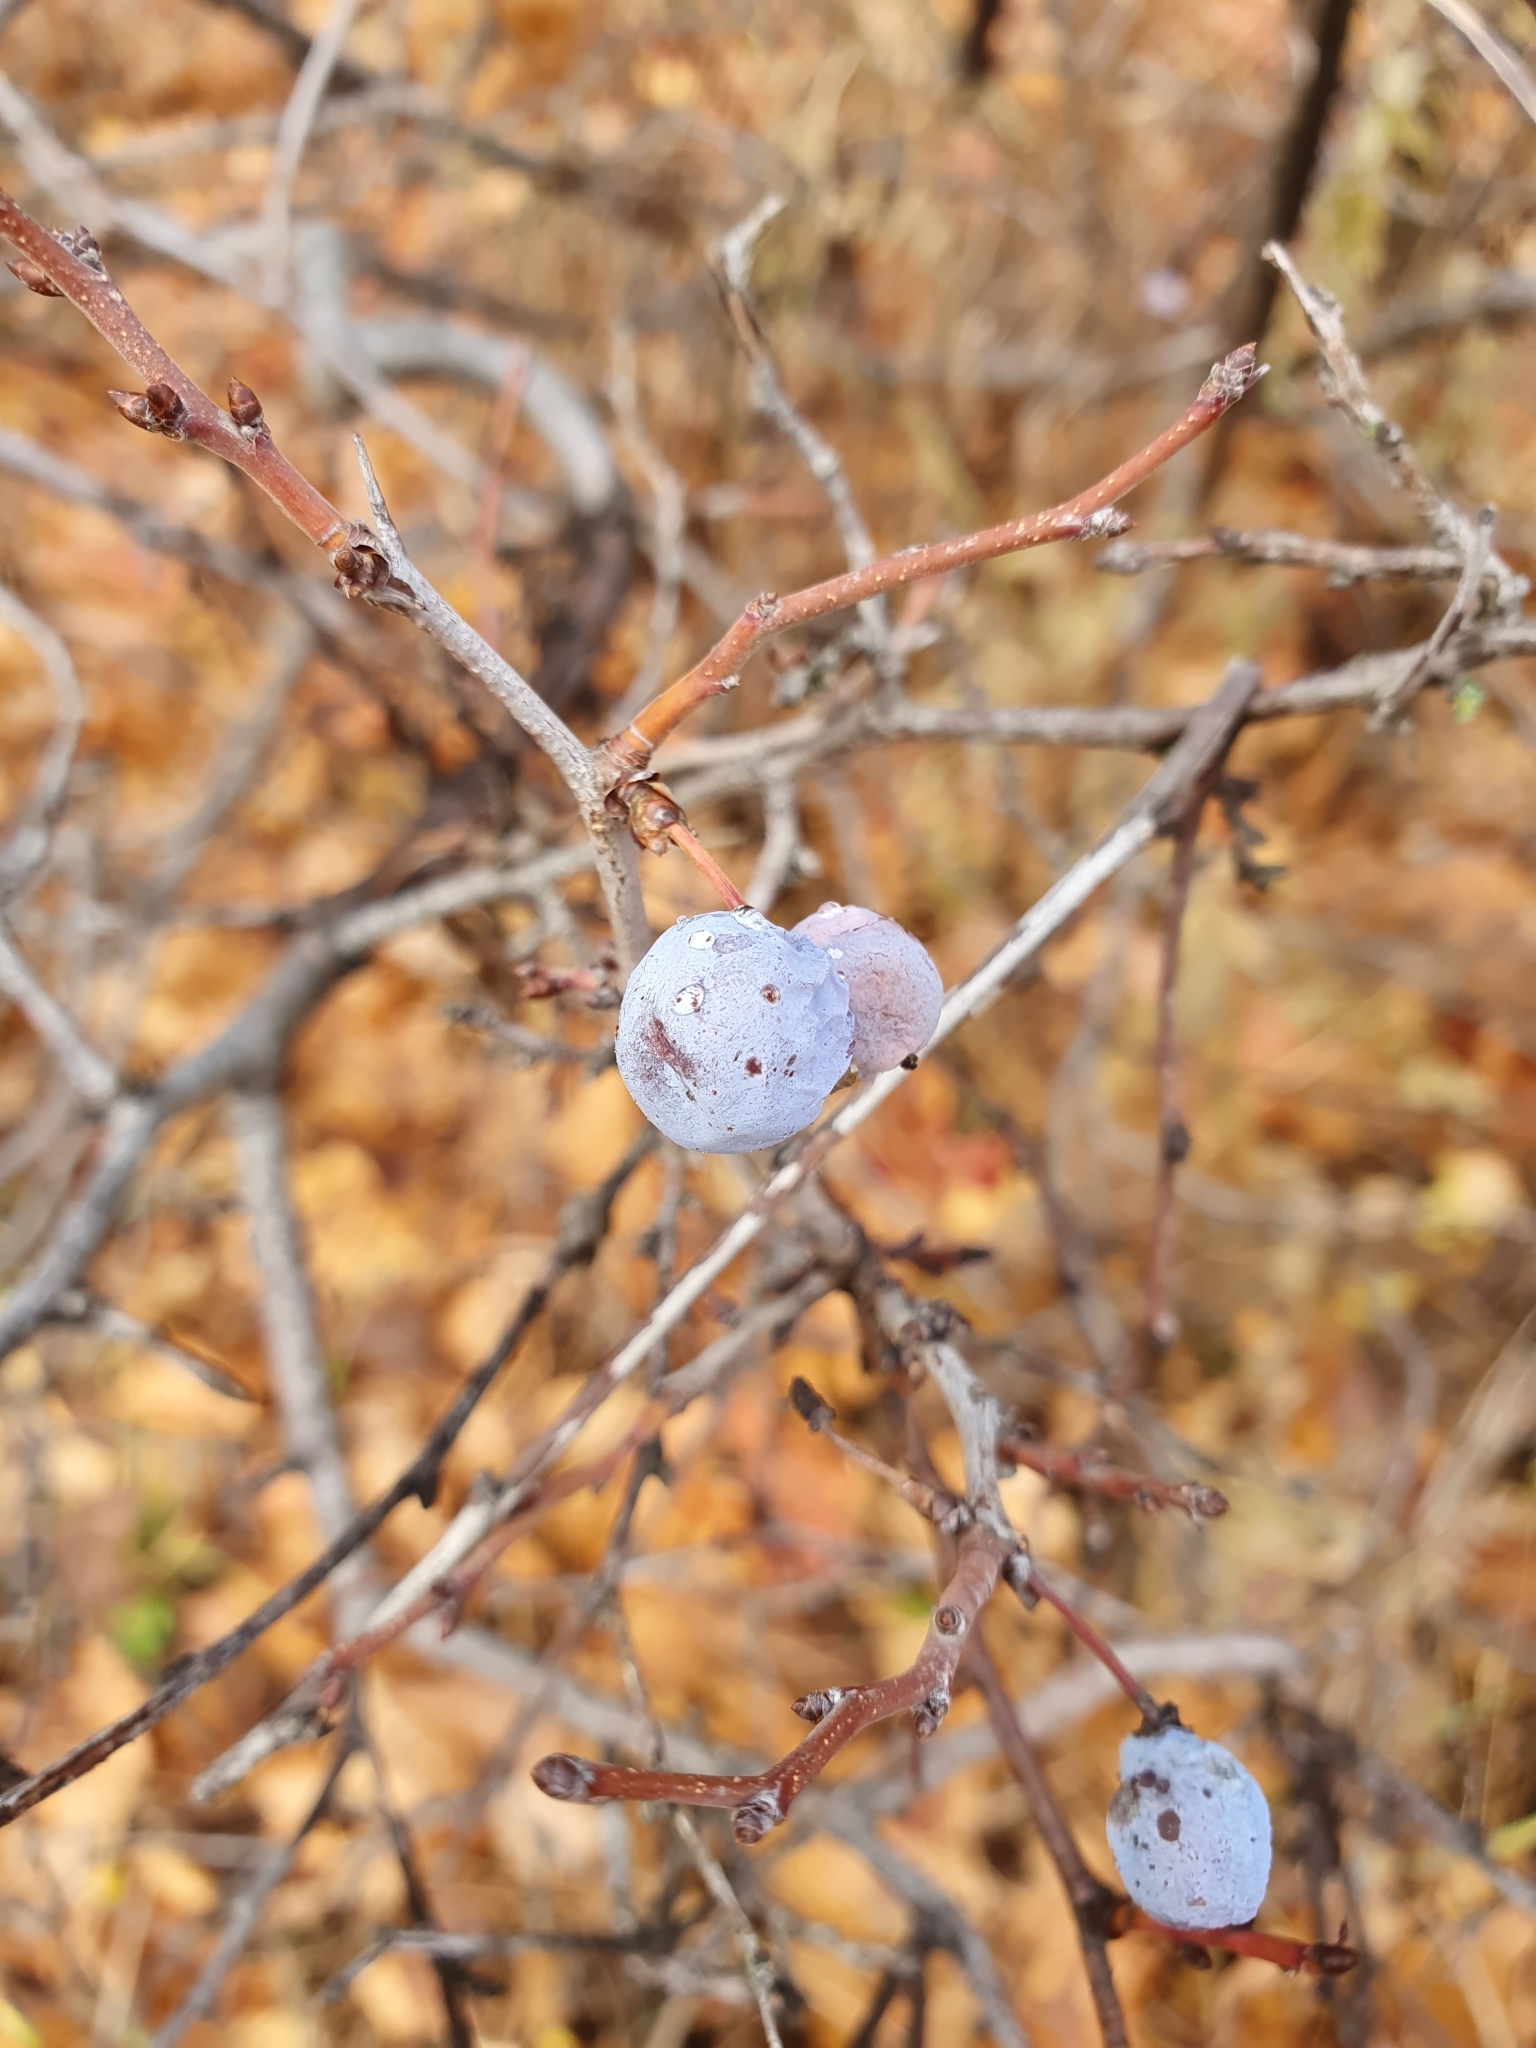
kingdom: Plantae
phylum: Tracheophyta
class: Magnoliopsida
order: Rosales
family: Rosaceae
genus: Prunus
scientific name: Prunus spinosa
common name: Blackthorn
